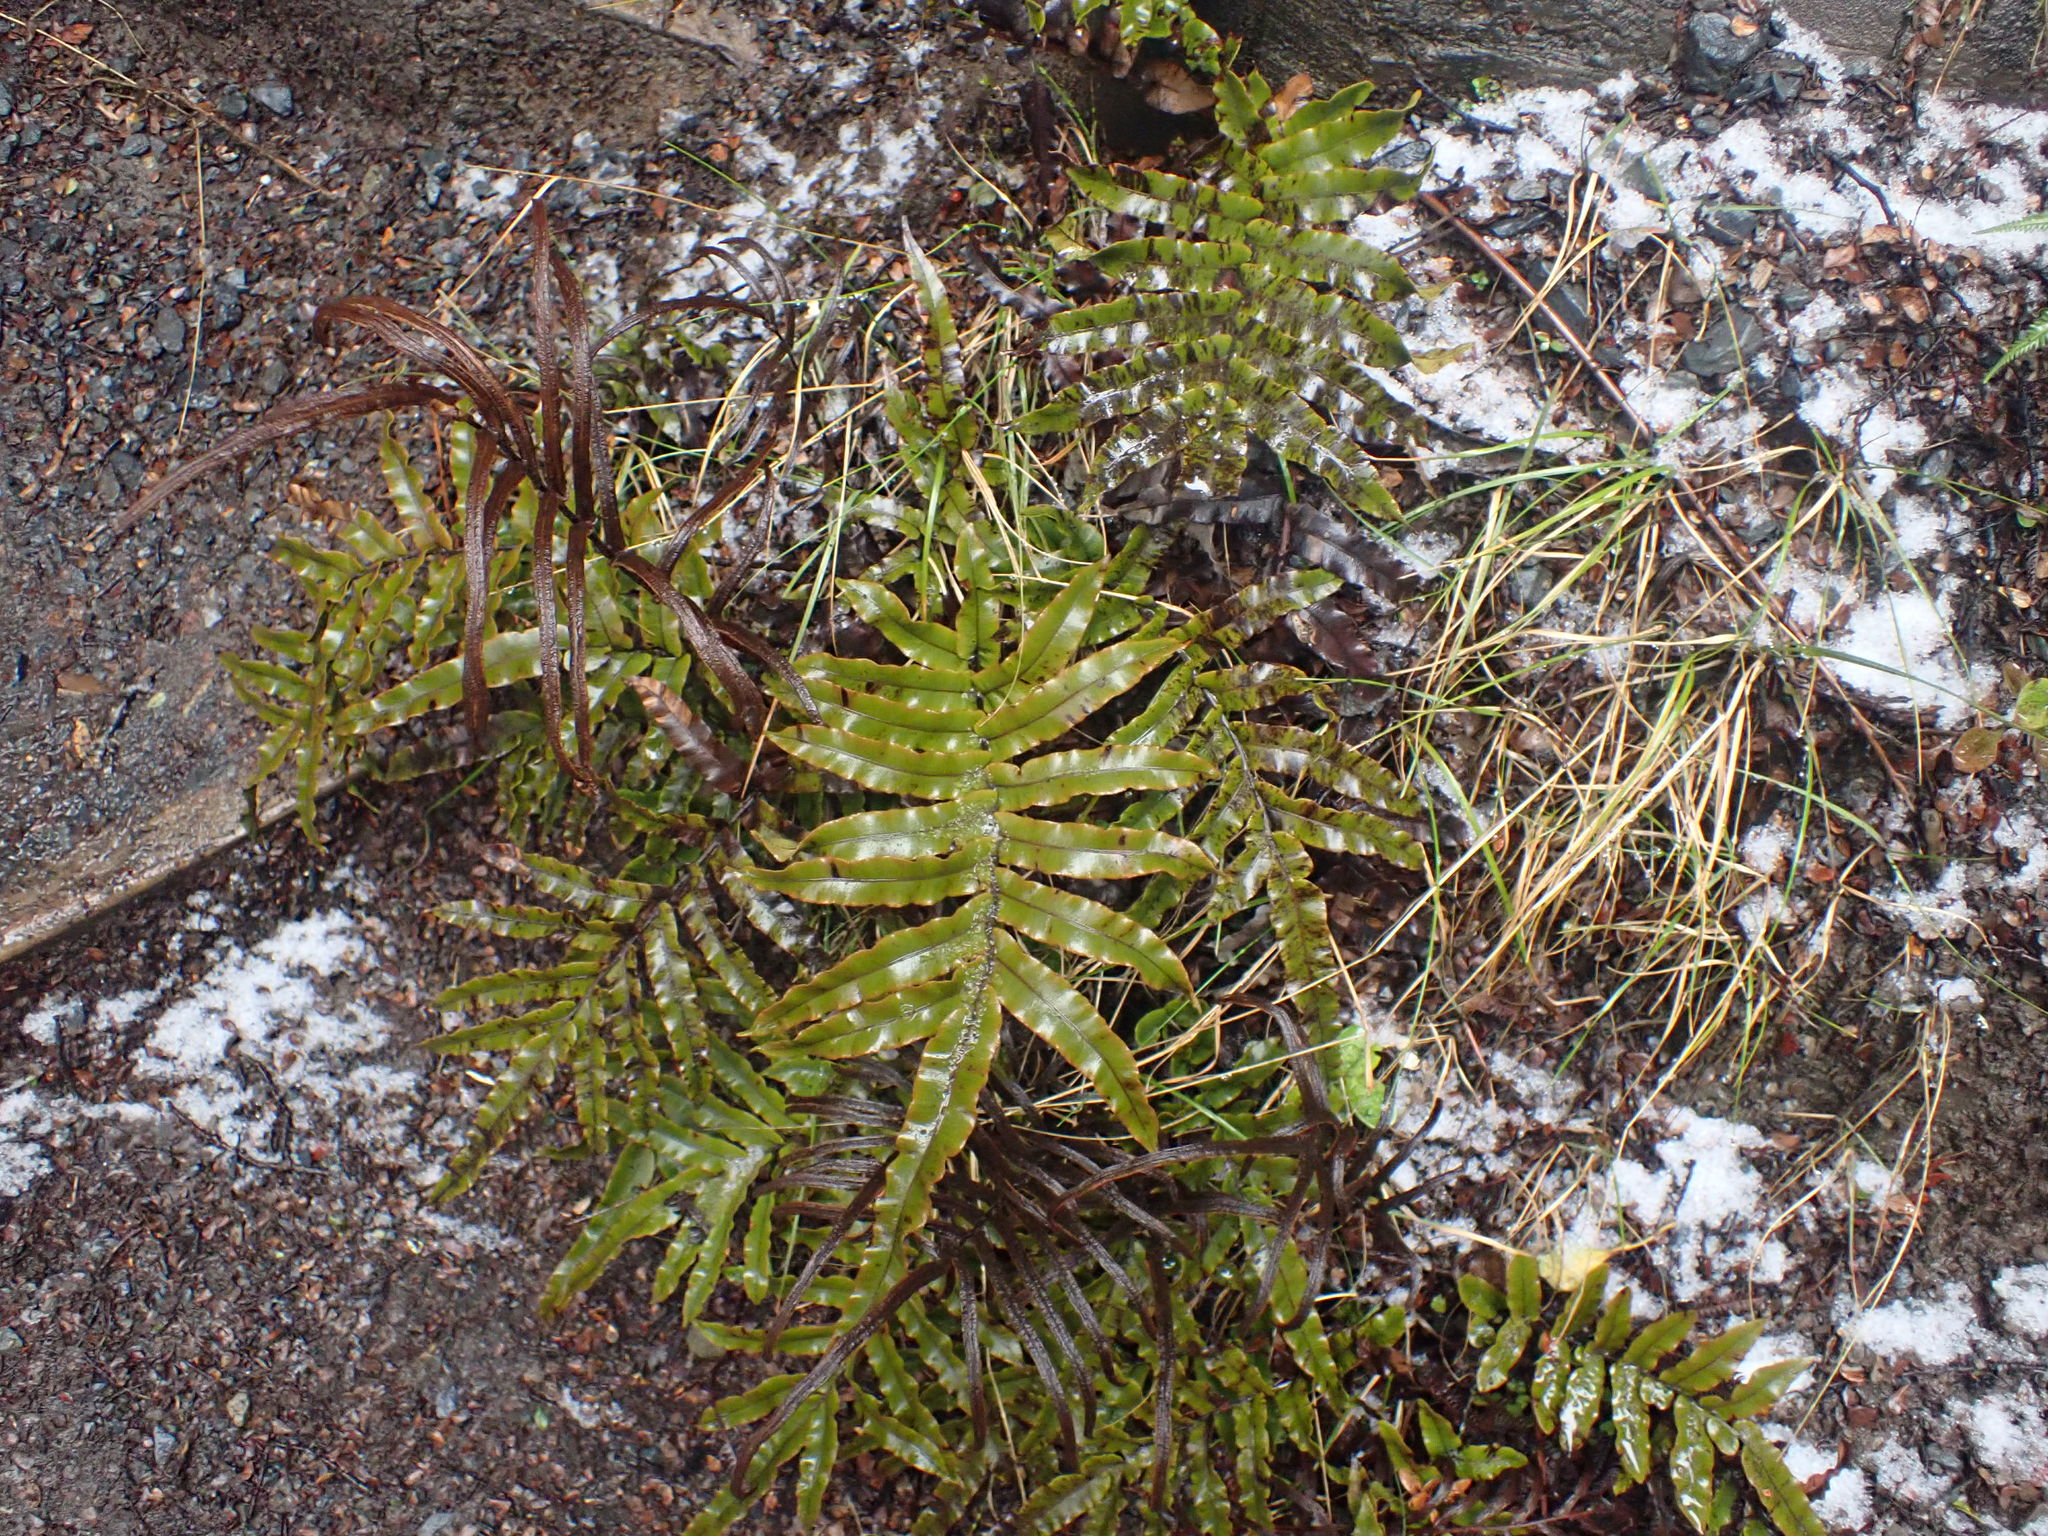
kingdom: Plantae
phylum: Tracheophyta
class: Polypodiopsida
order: Polypodiales
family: Blechnaceae
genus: Parablechnum
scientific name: Parablechnum montanum
